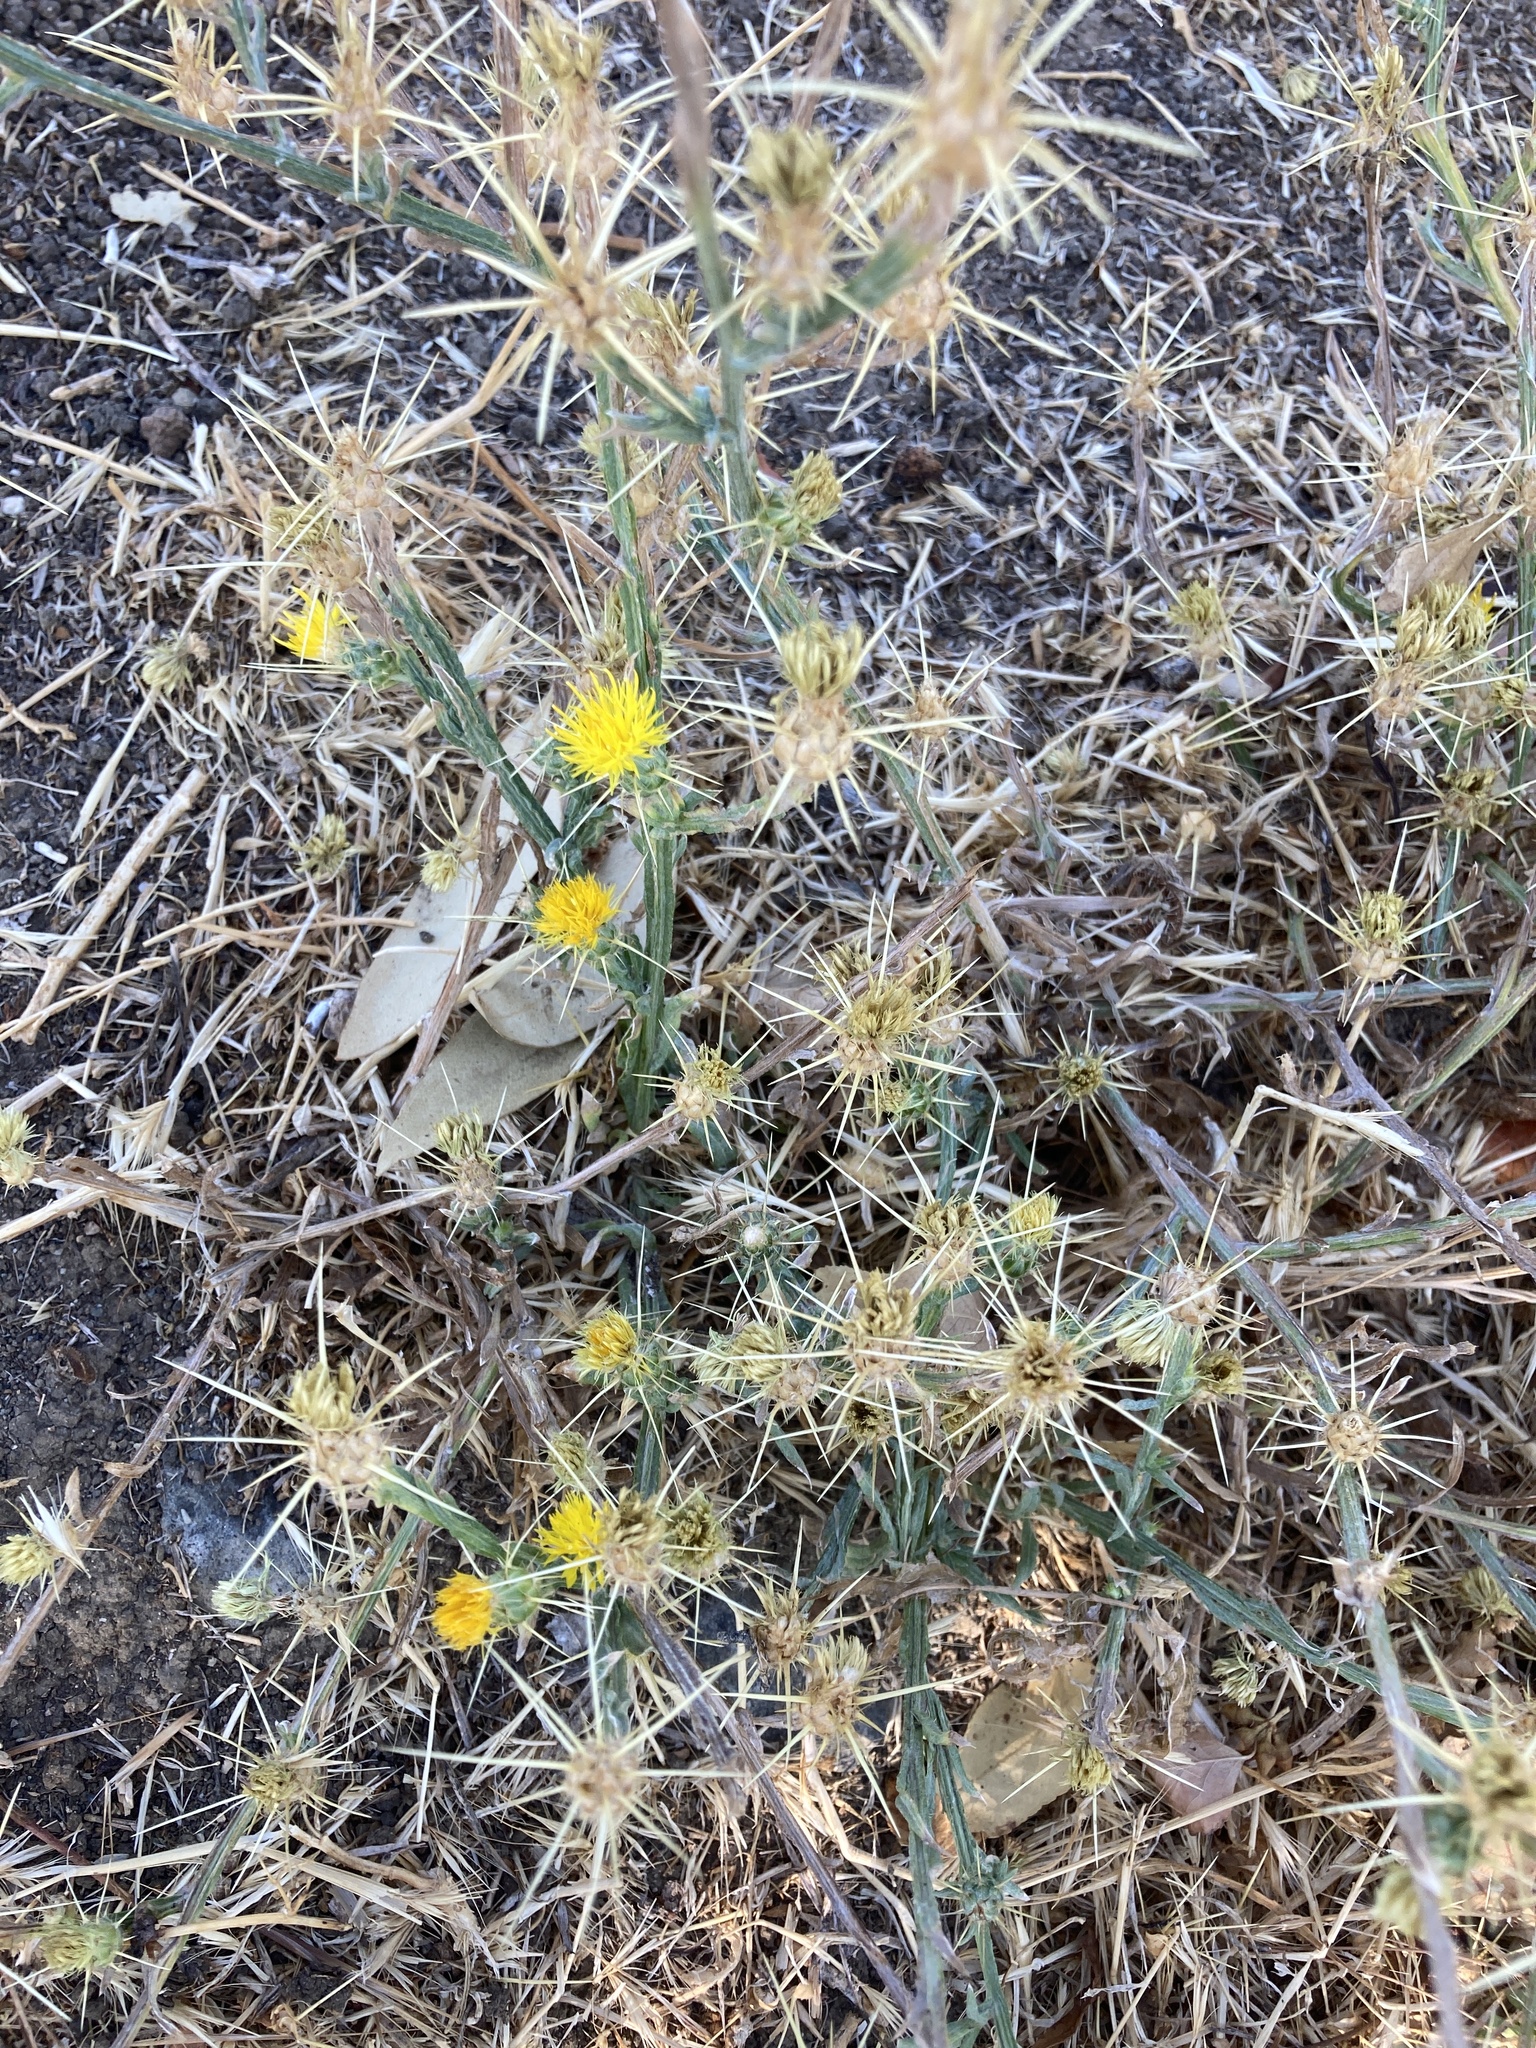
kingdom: Plantae
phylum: Tracheophyta
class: Magnoliopsida
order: Asterales
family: Asteraceae
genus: Centaurea
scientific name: Centaurea solstitialis
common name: Yellow star-thistle
